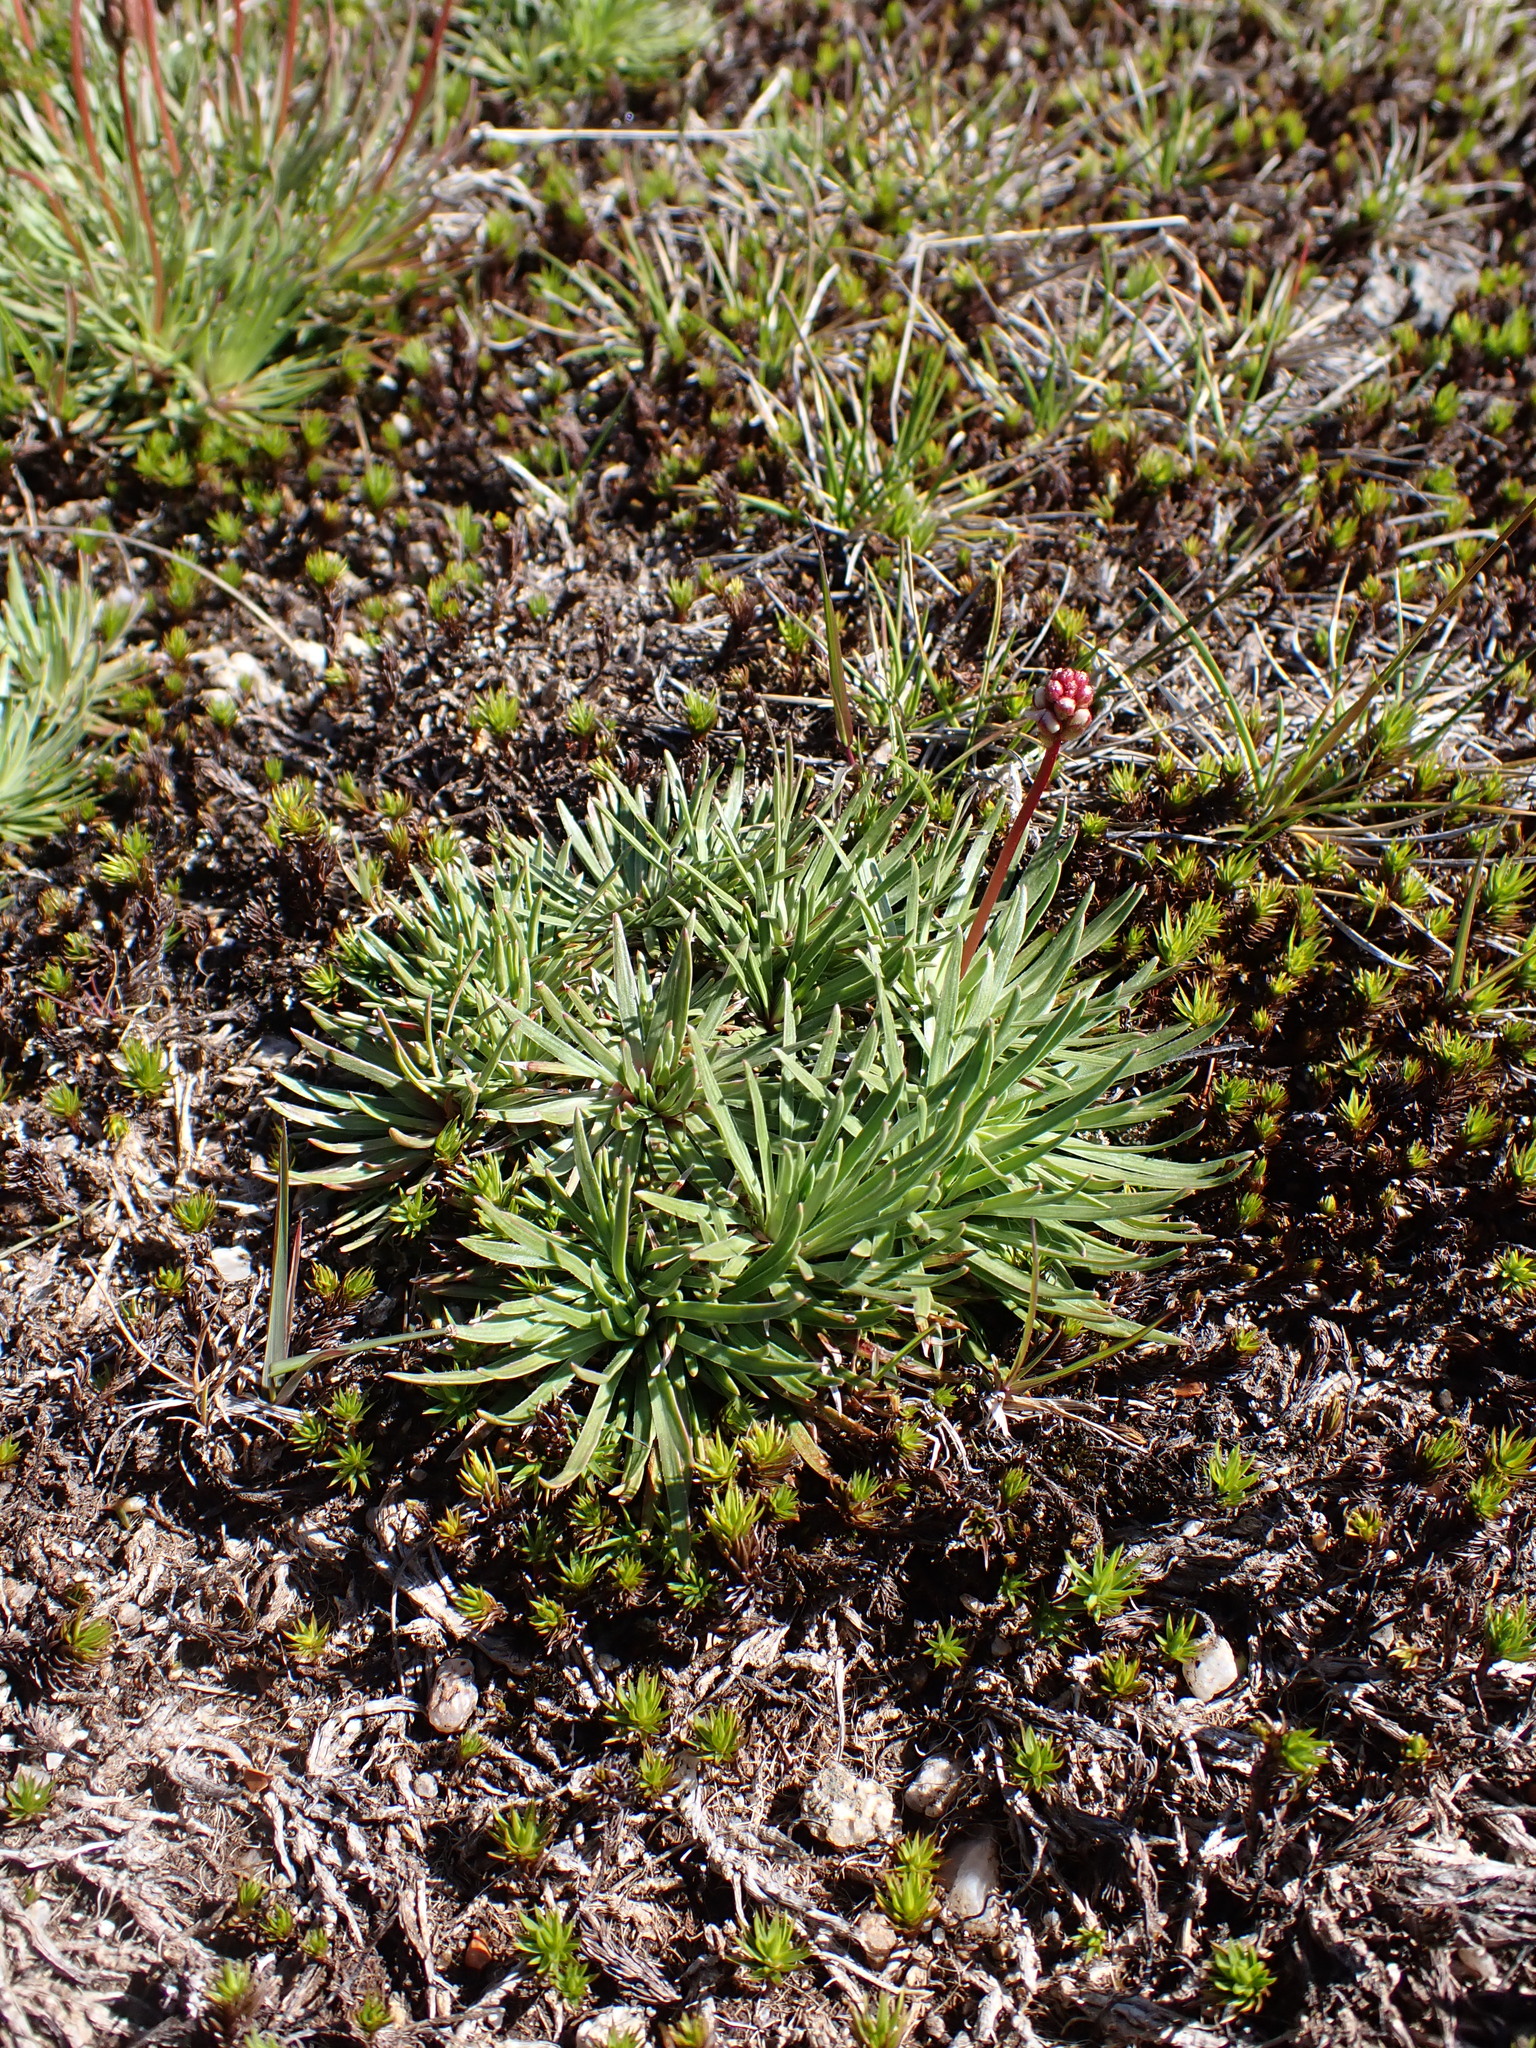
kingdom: Plantae
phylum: Tracheophyta
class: Magnoliopsida
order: Asterales
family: Stylidiaceae
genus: Stylidium
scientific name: Stylidium montanum
